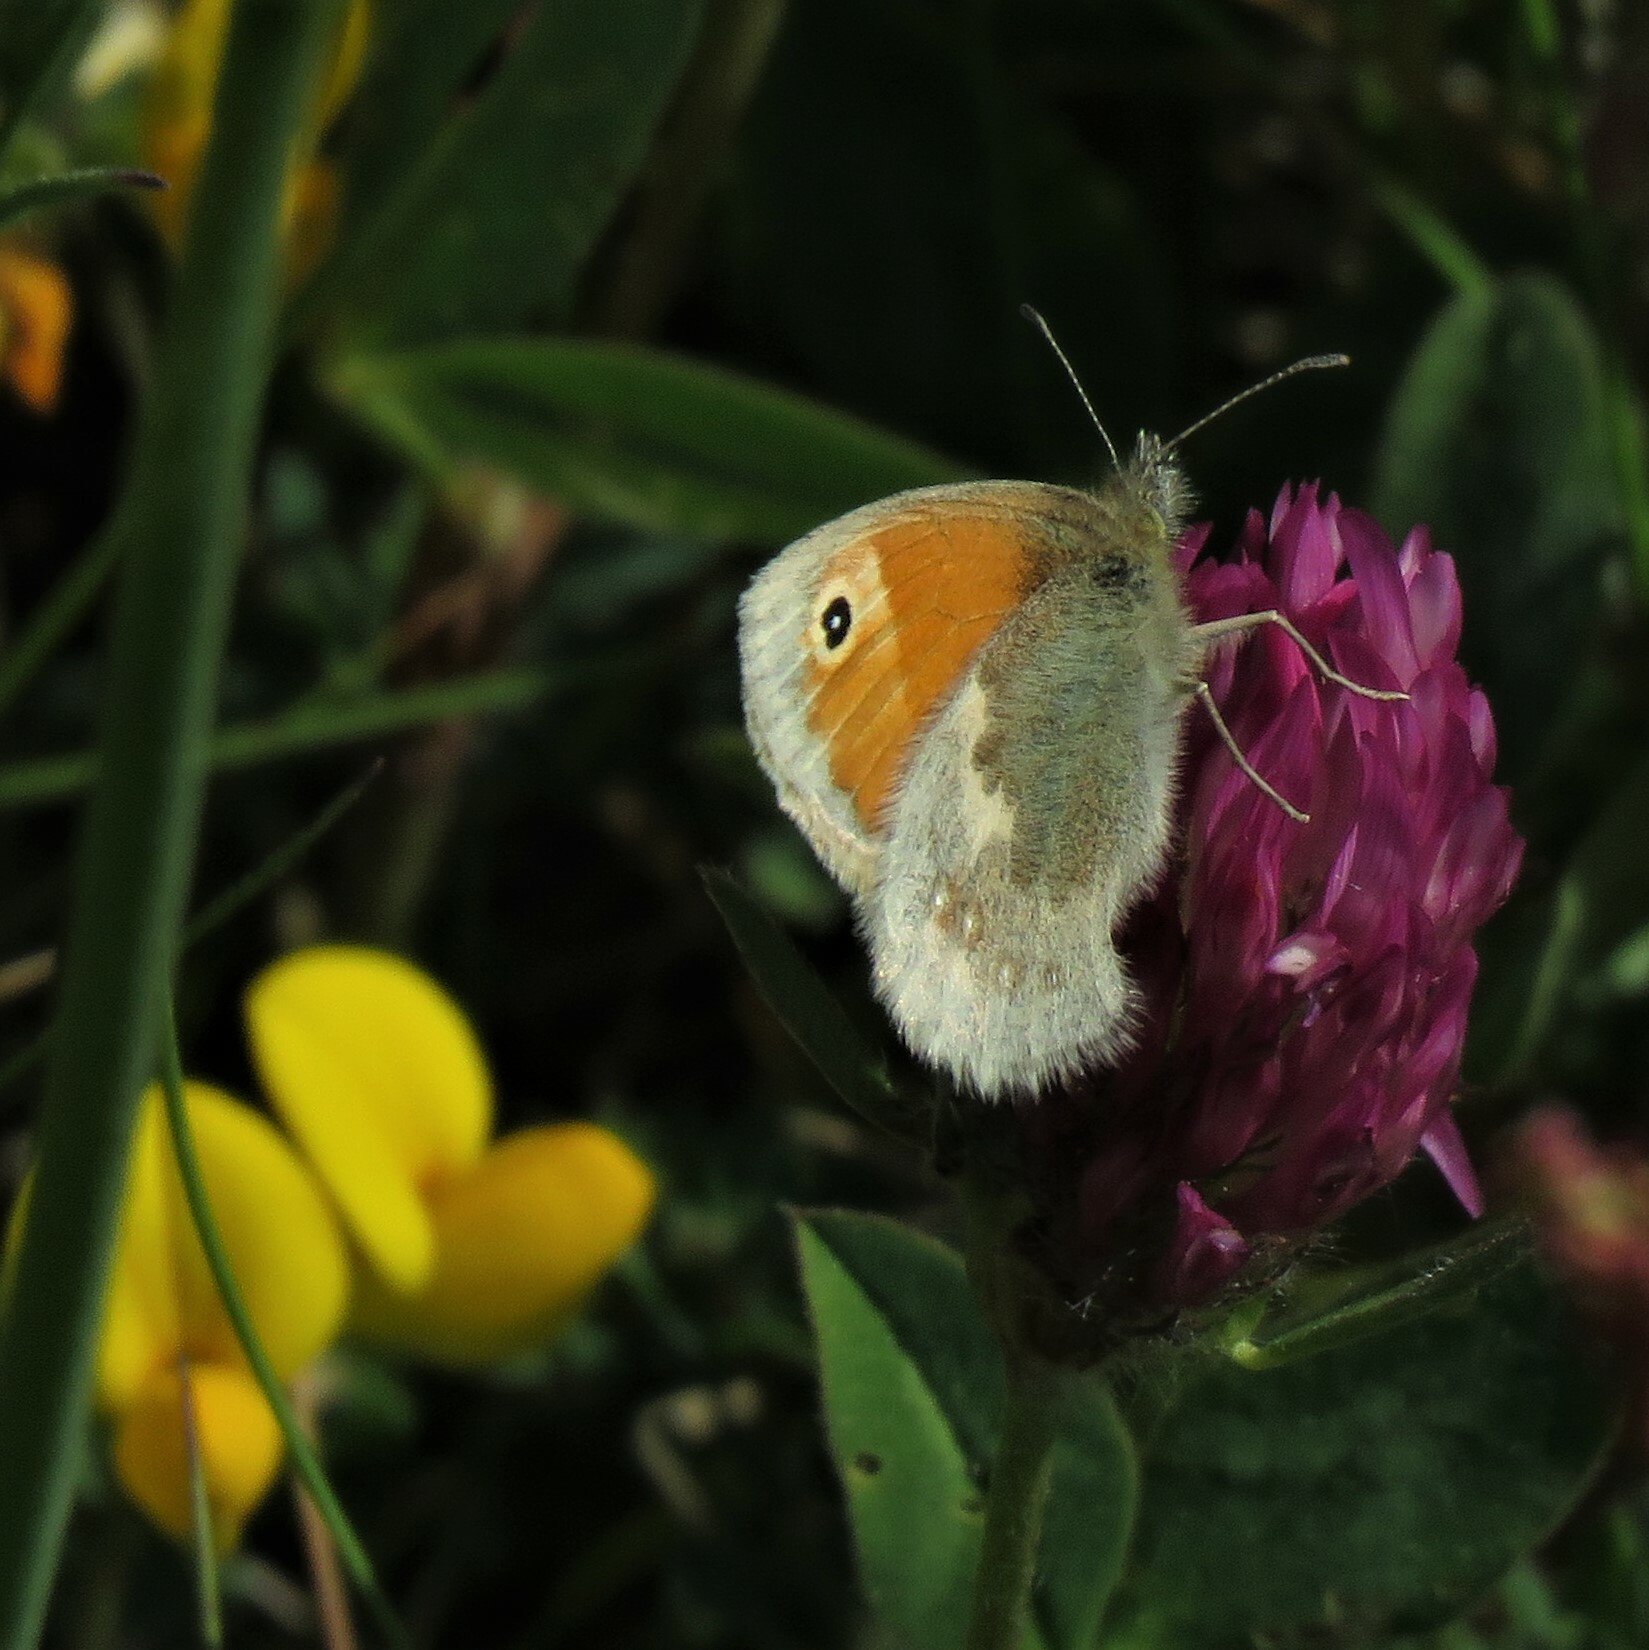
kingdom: Animalia
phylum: Arthropoda
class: Insecta
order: Lepidoptera
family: Nymphalidae
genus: Coenonympha
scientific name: Coenonympha pamphilus
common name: Small heath
